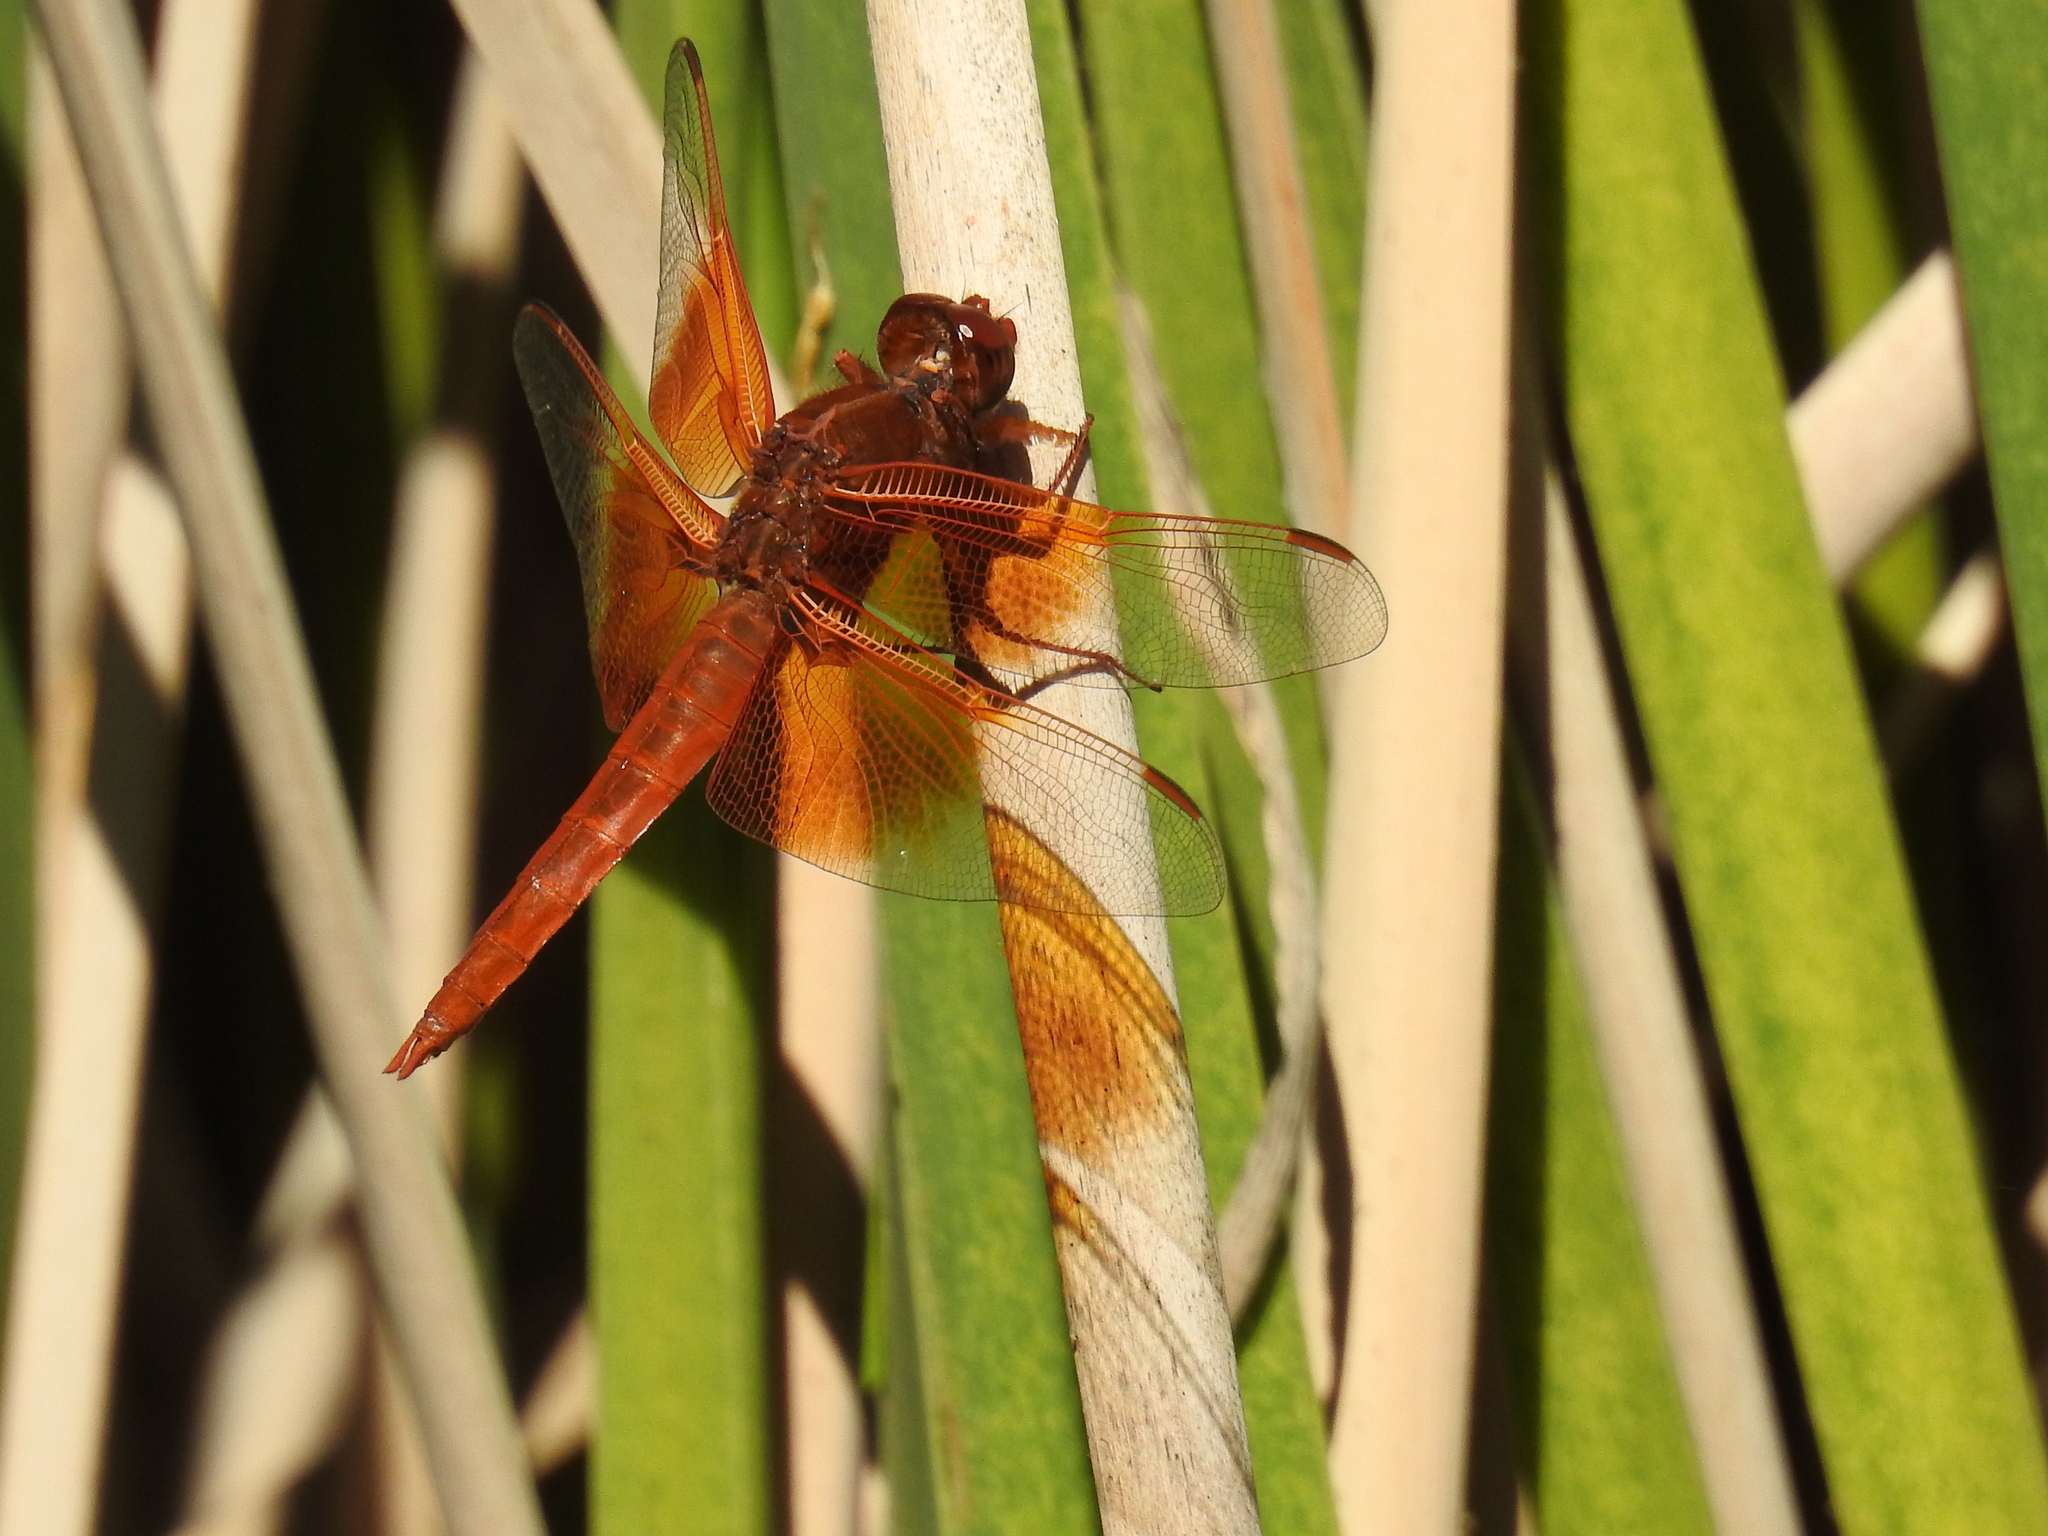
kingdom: Animalia
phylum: Arthropoda
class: Insecta
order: Odonata
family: Libellulidae
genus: Libellula
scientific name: Libellula saturata
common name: Flame skimmer
